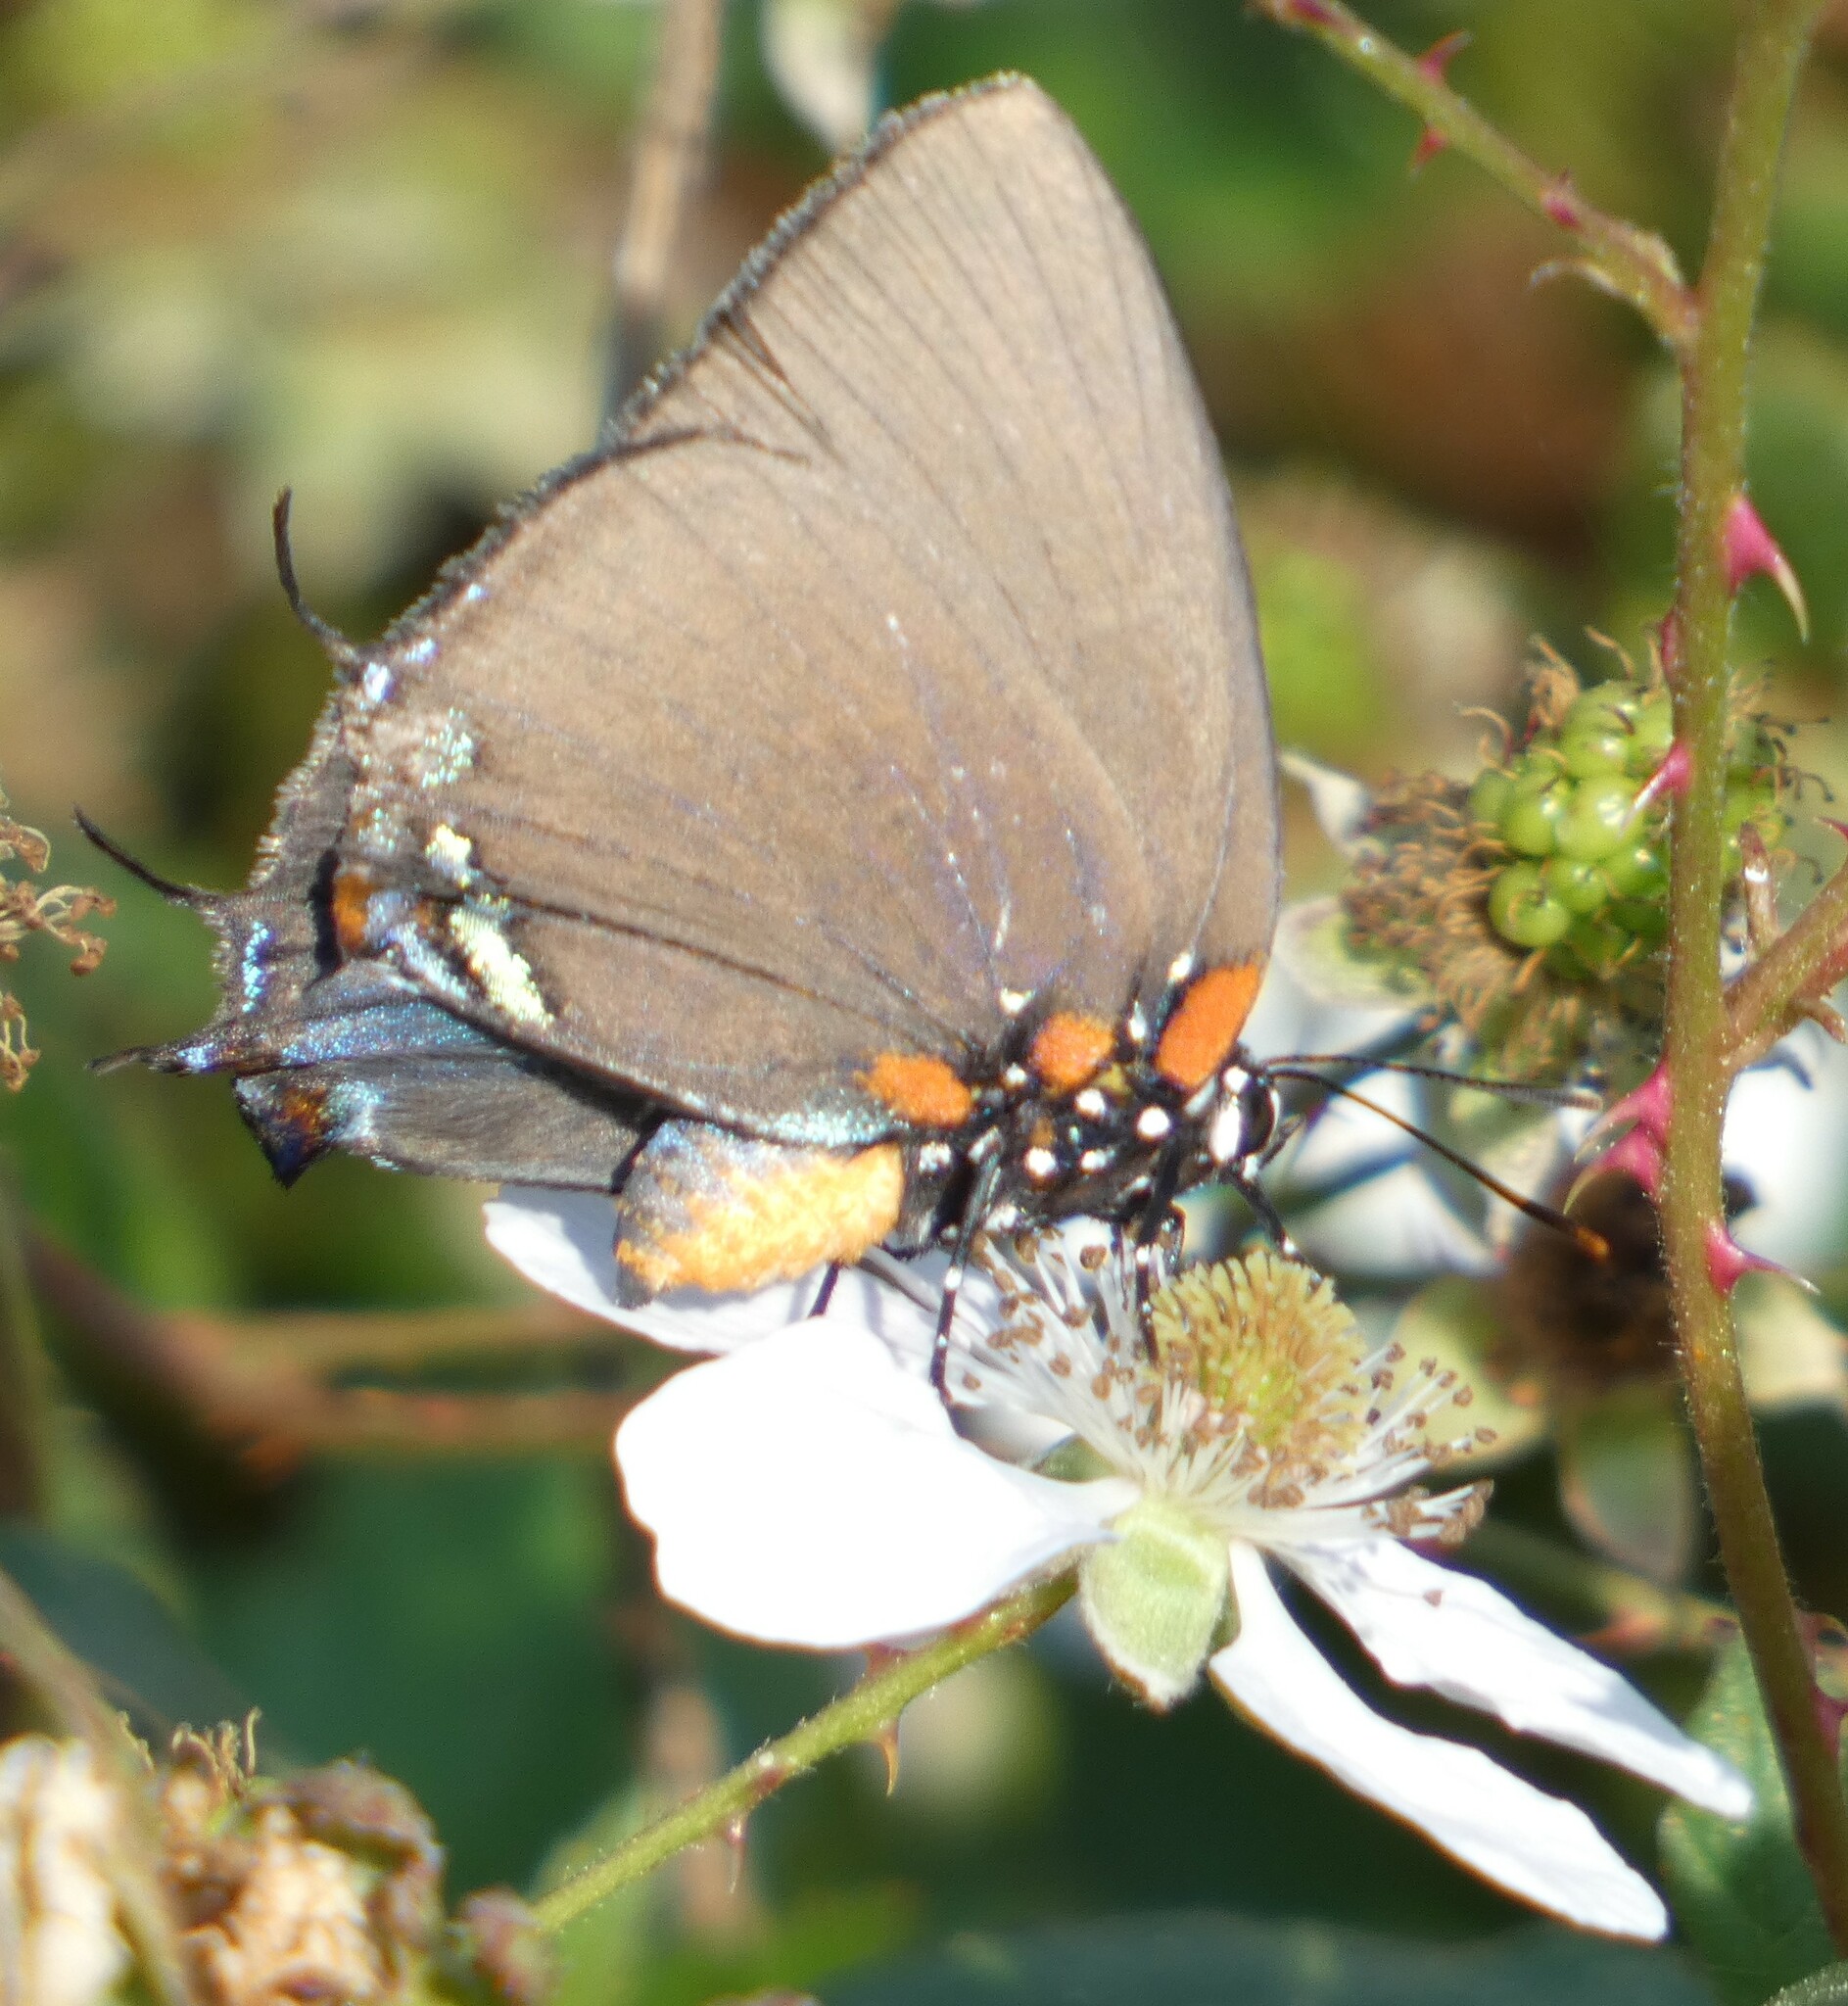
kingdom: Animalia
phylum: Arthropoda
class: Insecta
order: Lepidoptera
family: Lycaenidae
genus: Atlides
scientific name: Atlides halesus
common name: Great purple hairstreak
